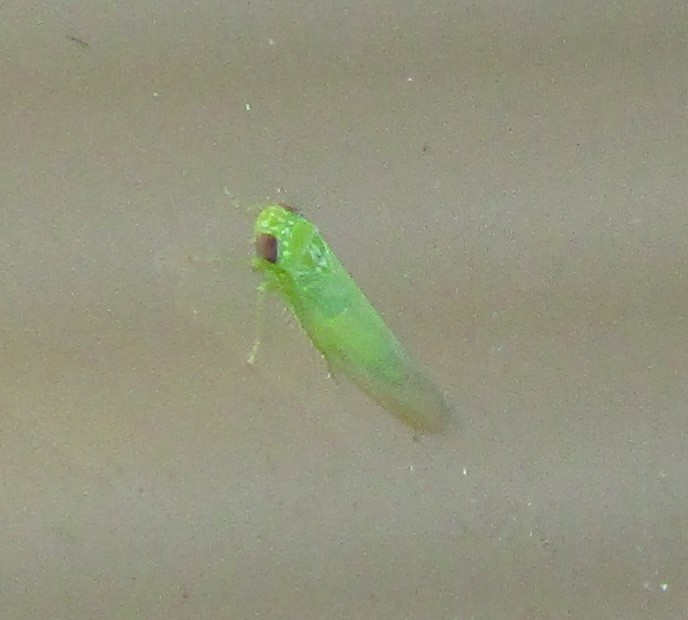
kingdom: Animalia
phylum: Arthropoda
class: Insecta
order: Hemiptera
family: Cicadellidae
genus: Empoasca
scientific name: Empoasca fabae
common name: Potato leafhopper
